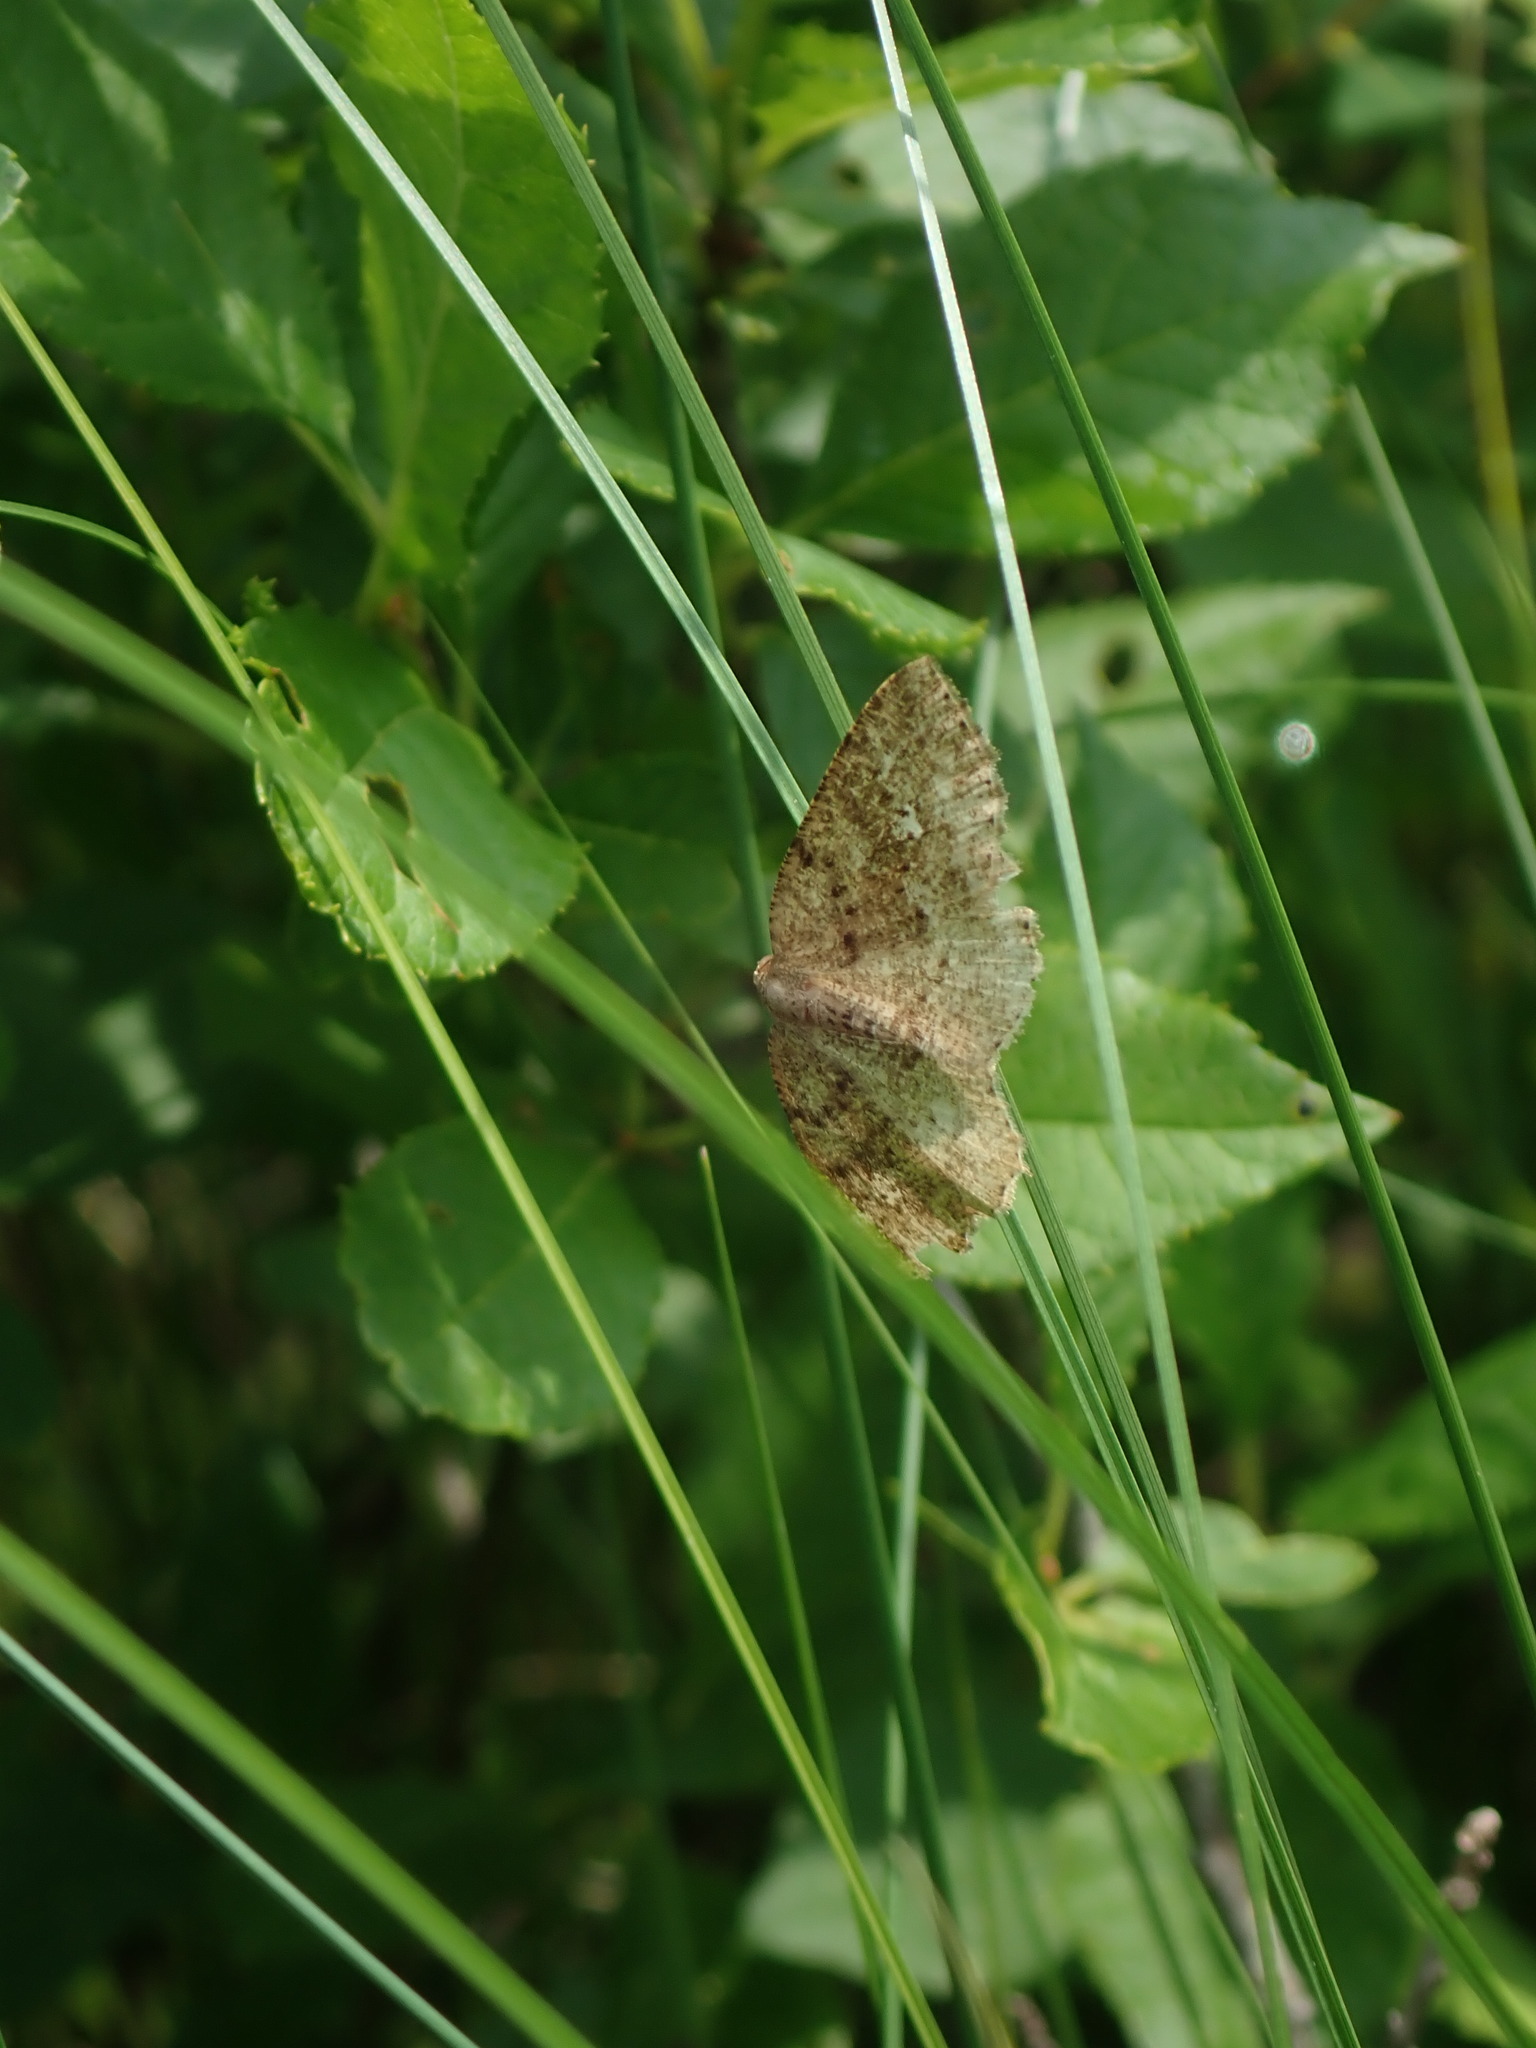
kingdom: Animalia
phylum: Arthropoda
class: Insecta
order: Lepidoptera
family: Geometridae
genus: Homochlodes
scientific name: Homochlodes fritillaria
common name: Pale homochlodes
